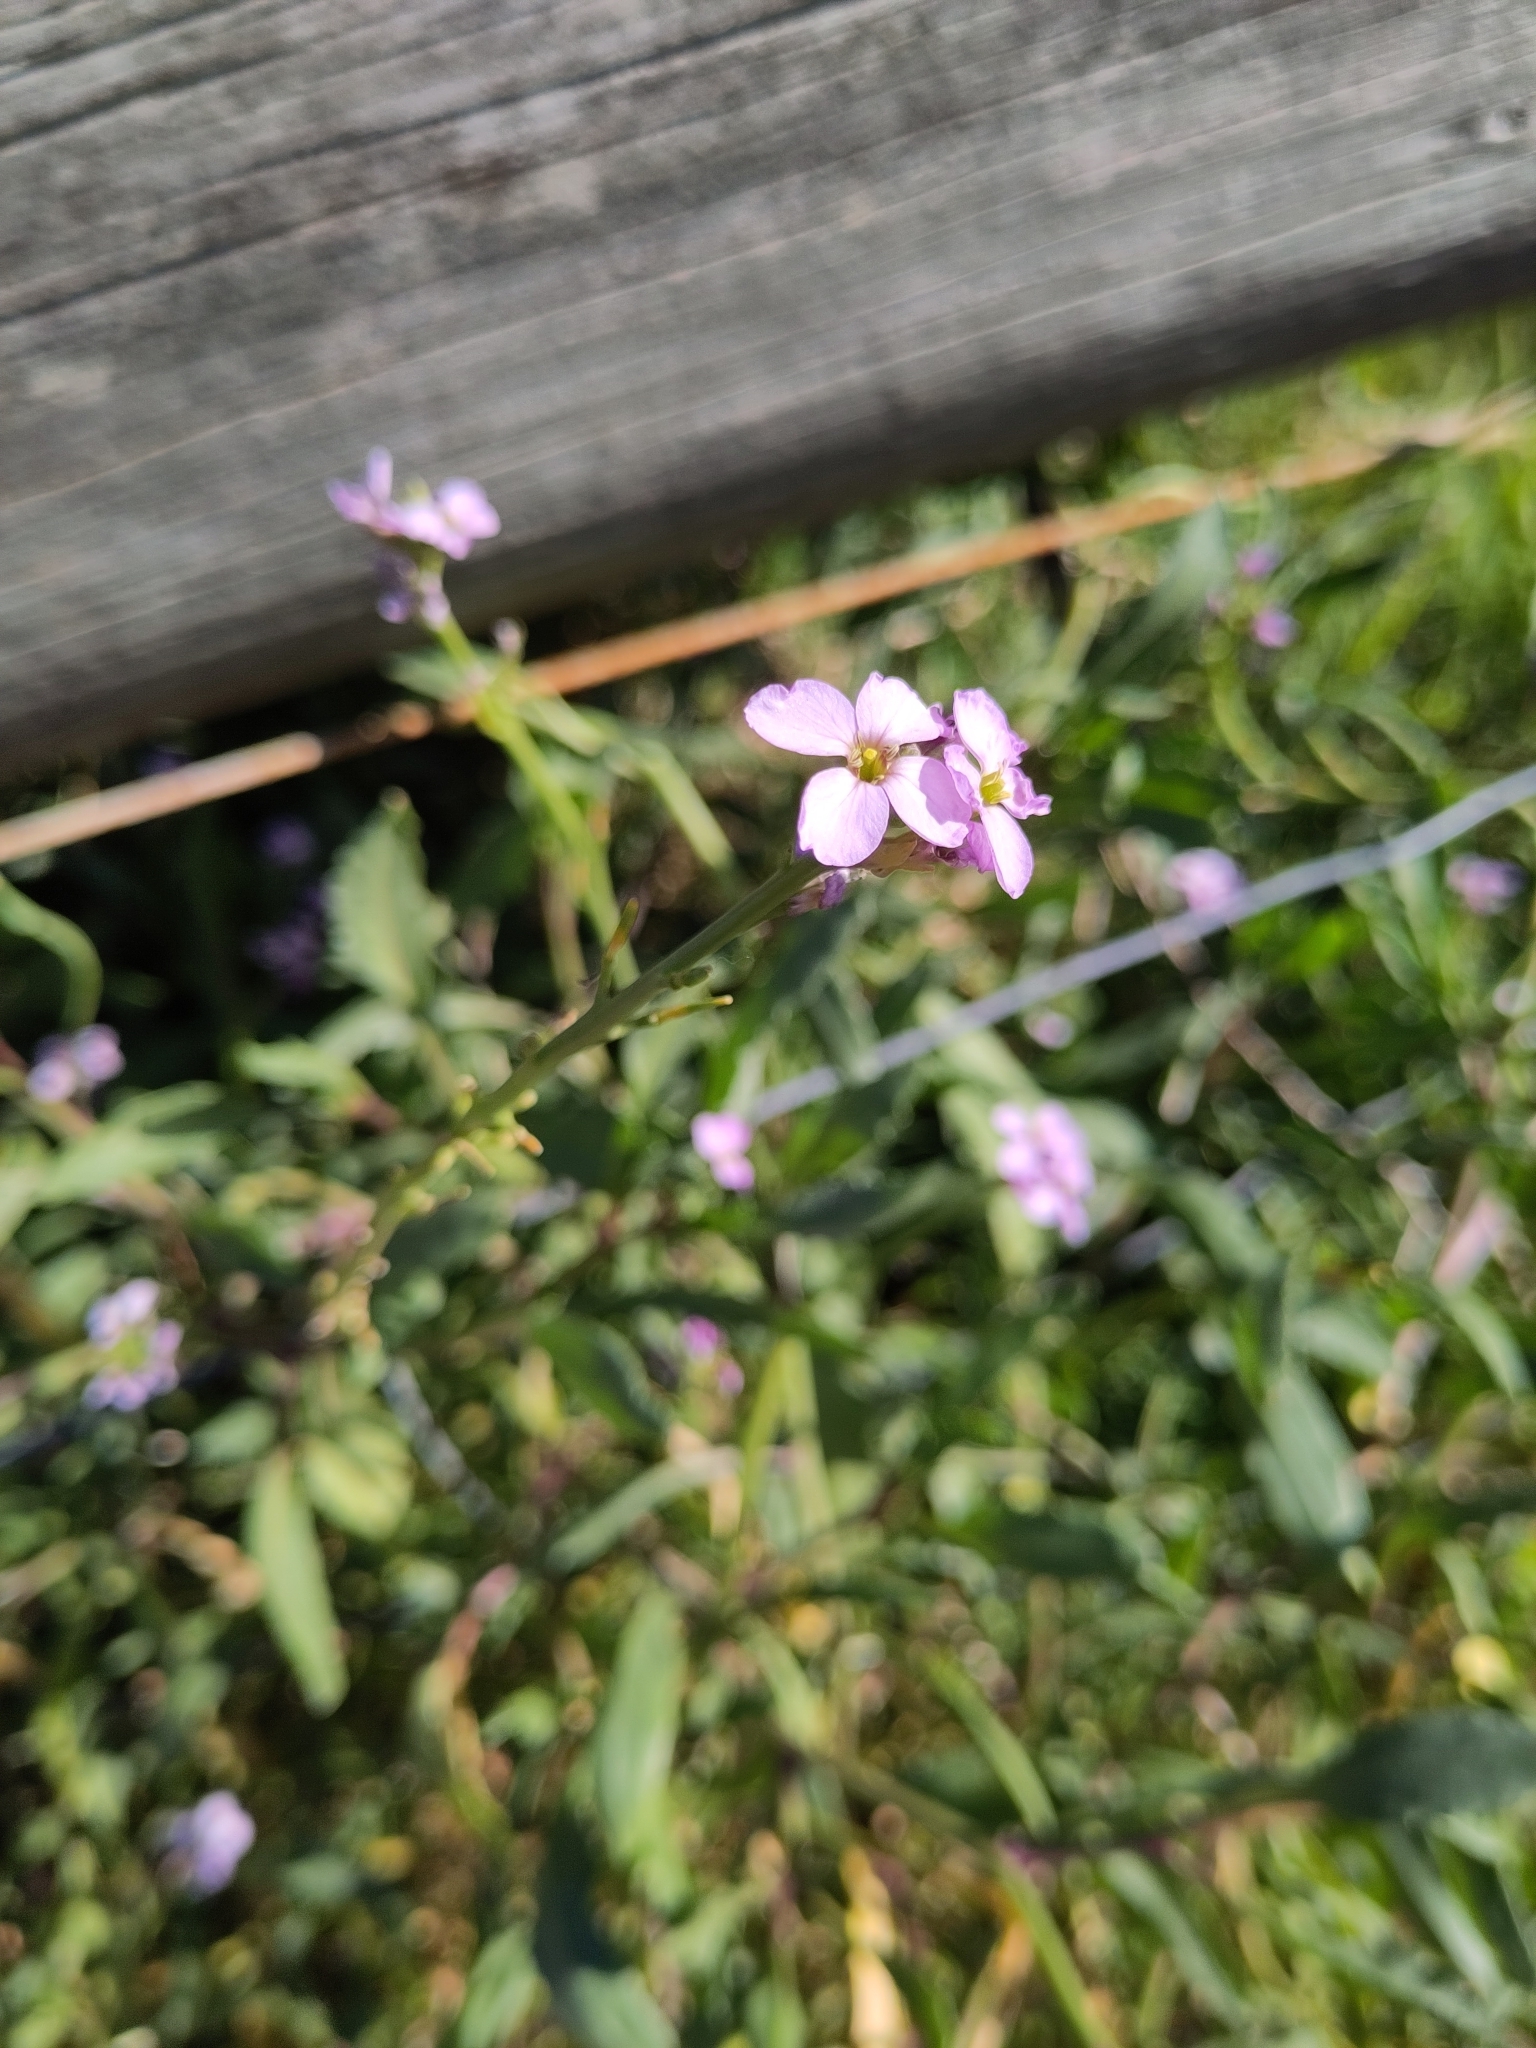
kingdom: Plantae
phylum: Tracheophyta
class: Magnoliopsida
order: Brassicales
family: Brassicaceae
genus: Cakile
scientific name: Cakile maritima
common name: Sea rocket
